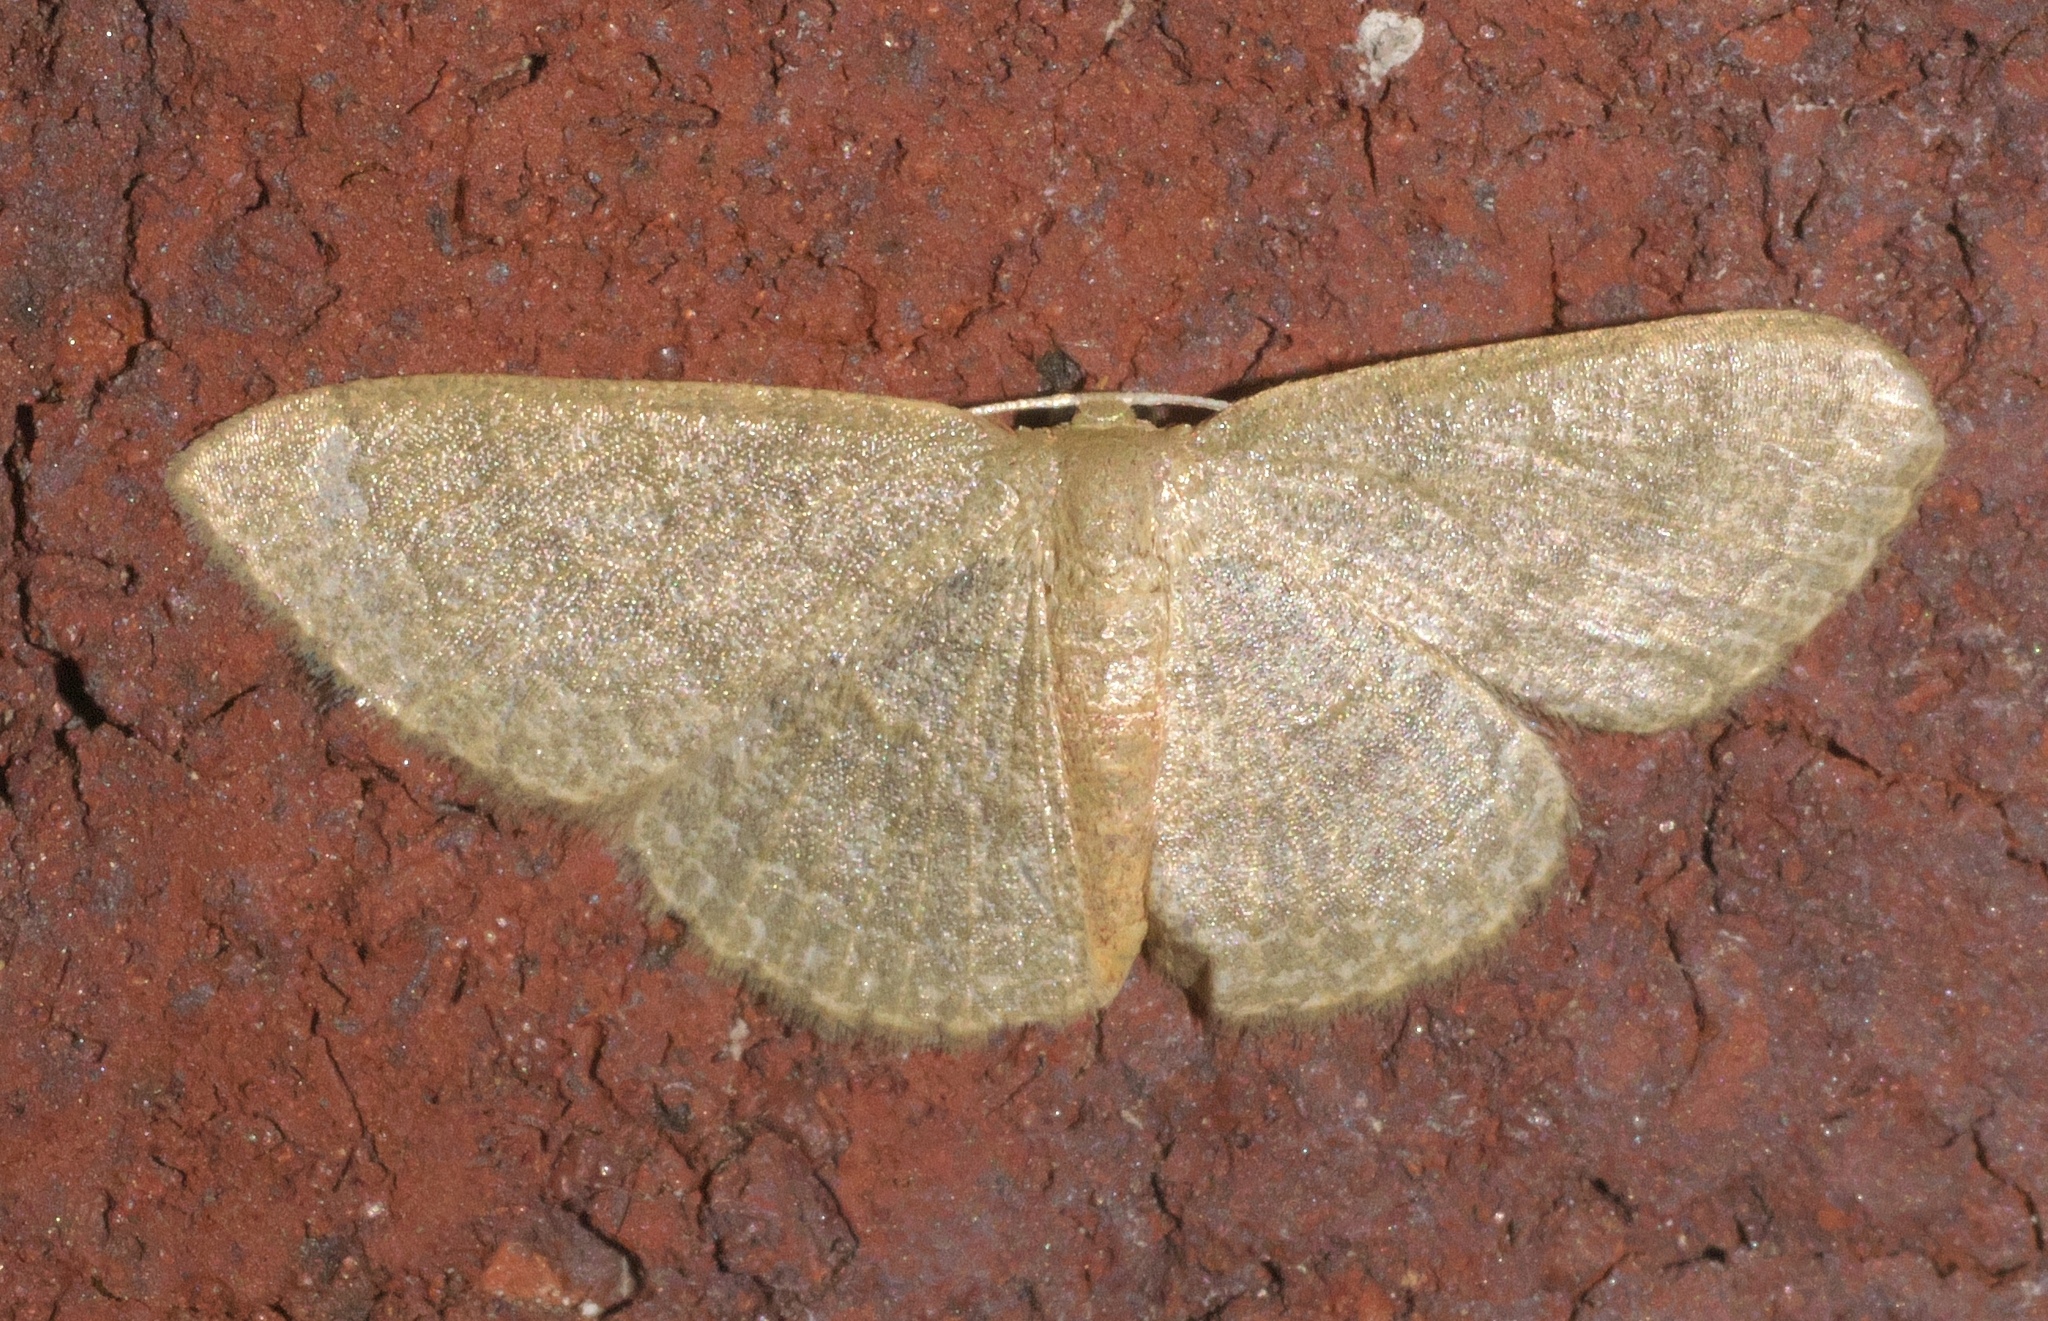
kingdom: Animalia
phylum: Arthropoda
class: Insecta
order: Lepidoptera
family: Geometridae
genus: Pleuroprucha
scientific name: Pleuroprucha insulsaria
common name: Common tan wave
